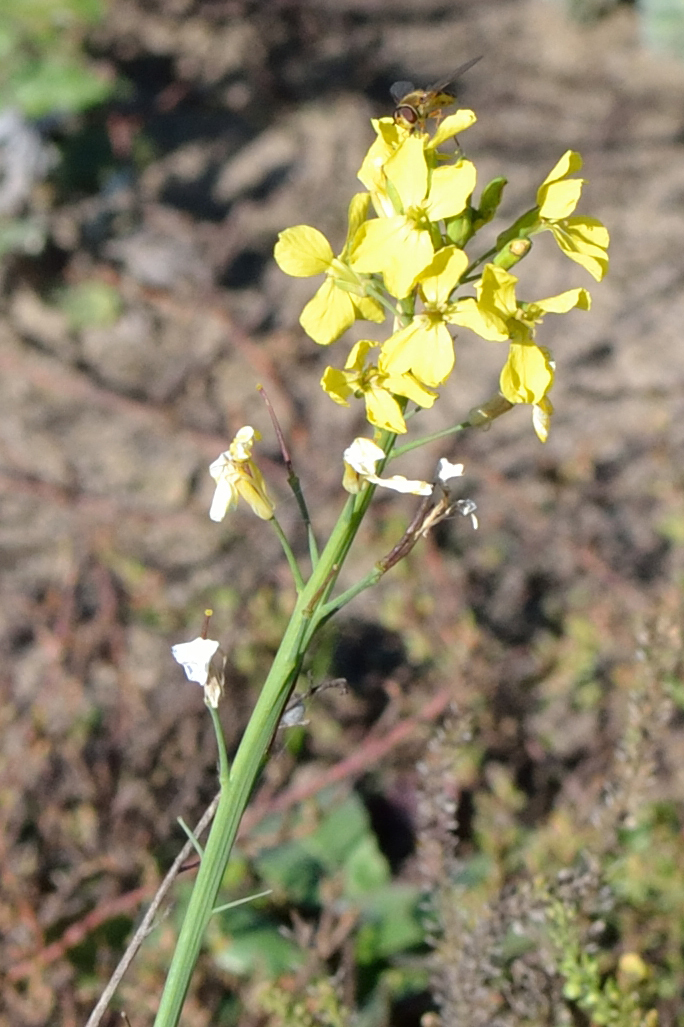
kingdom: Plantae
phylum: Tracheophyta
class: Magnoliopsida
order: Brassicales
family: Brassicaceae
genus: Raphanus
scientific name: Raphanus raphanistrum
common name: Wild radish
